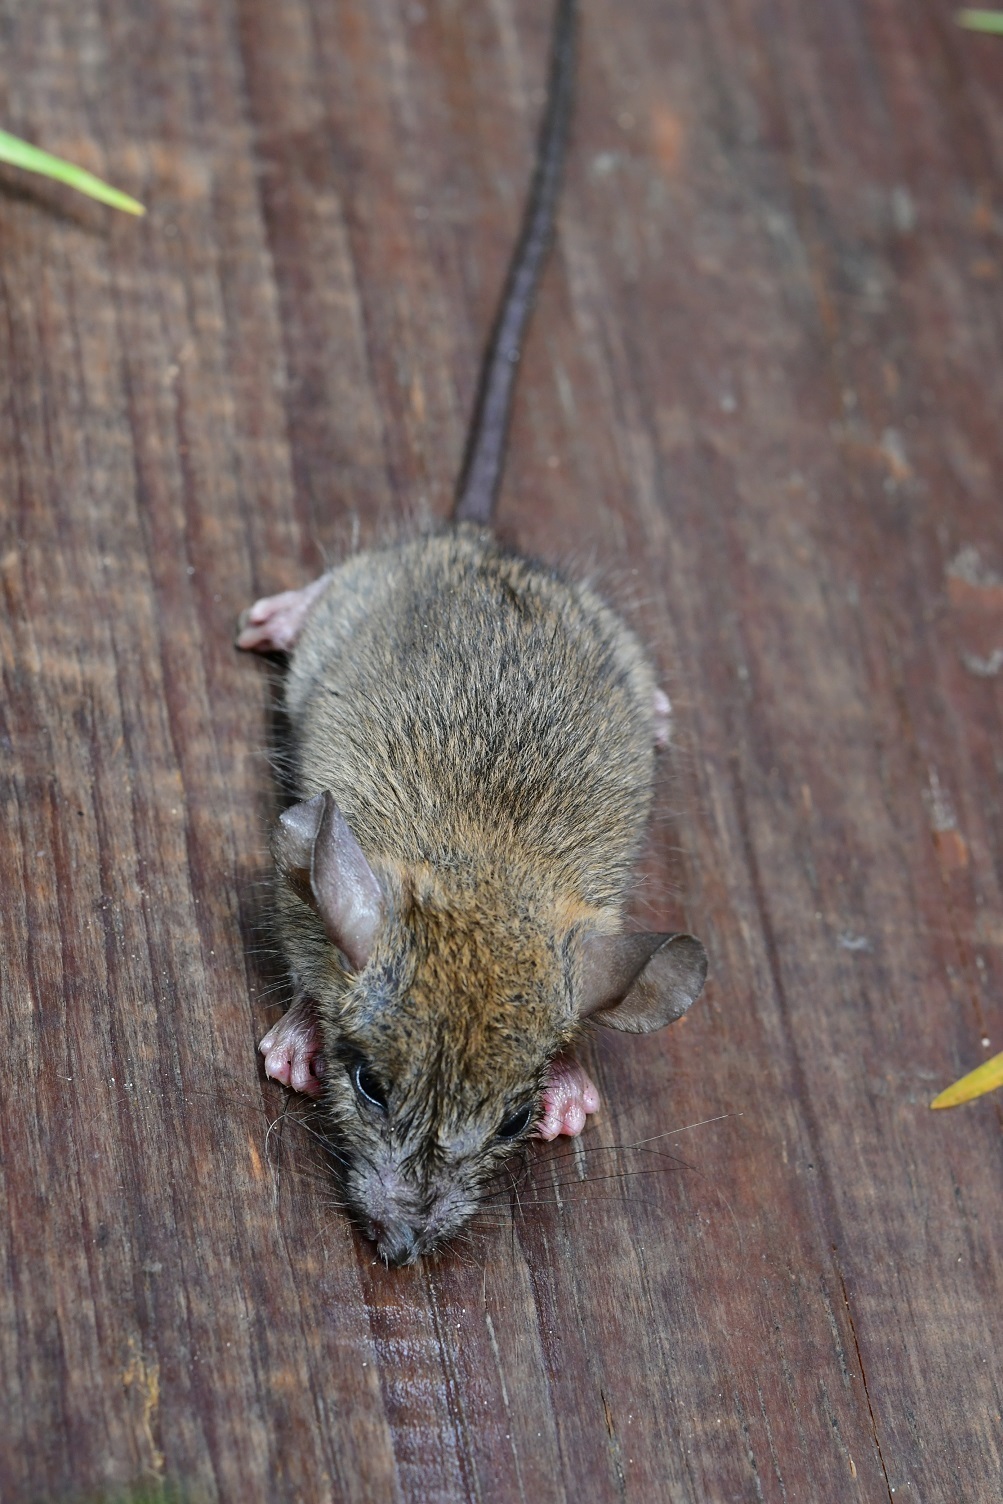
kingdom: Animalia
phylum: Chordata
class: Mammalia
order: Rodentia
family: Cricetidae
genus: Peromyscus
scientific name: Peromyscus beatae
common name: Orizaba deermouse
